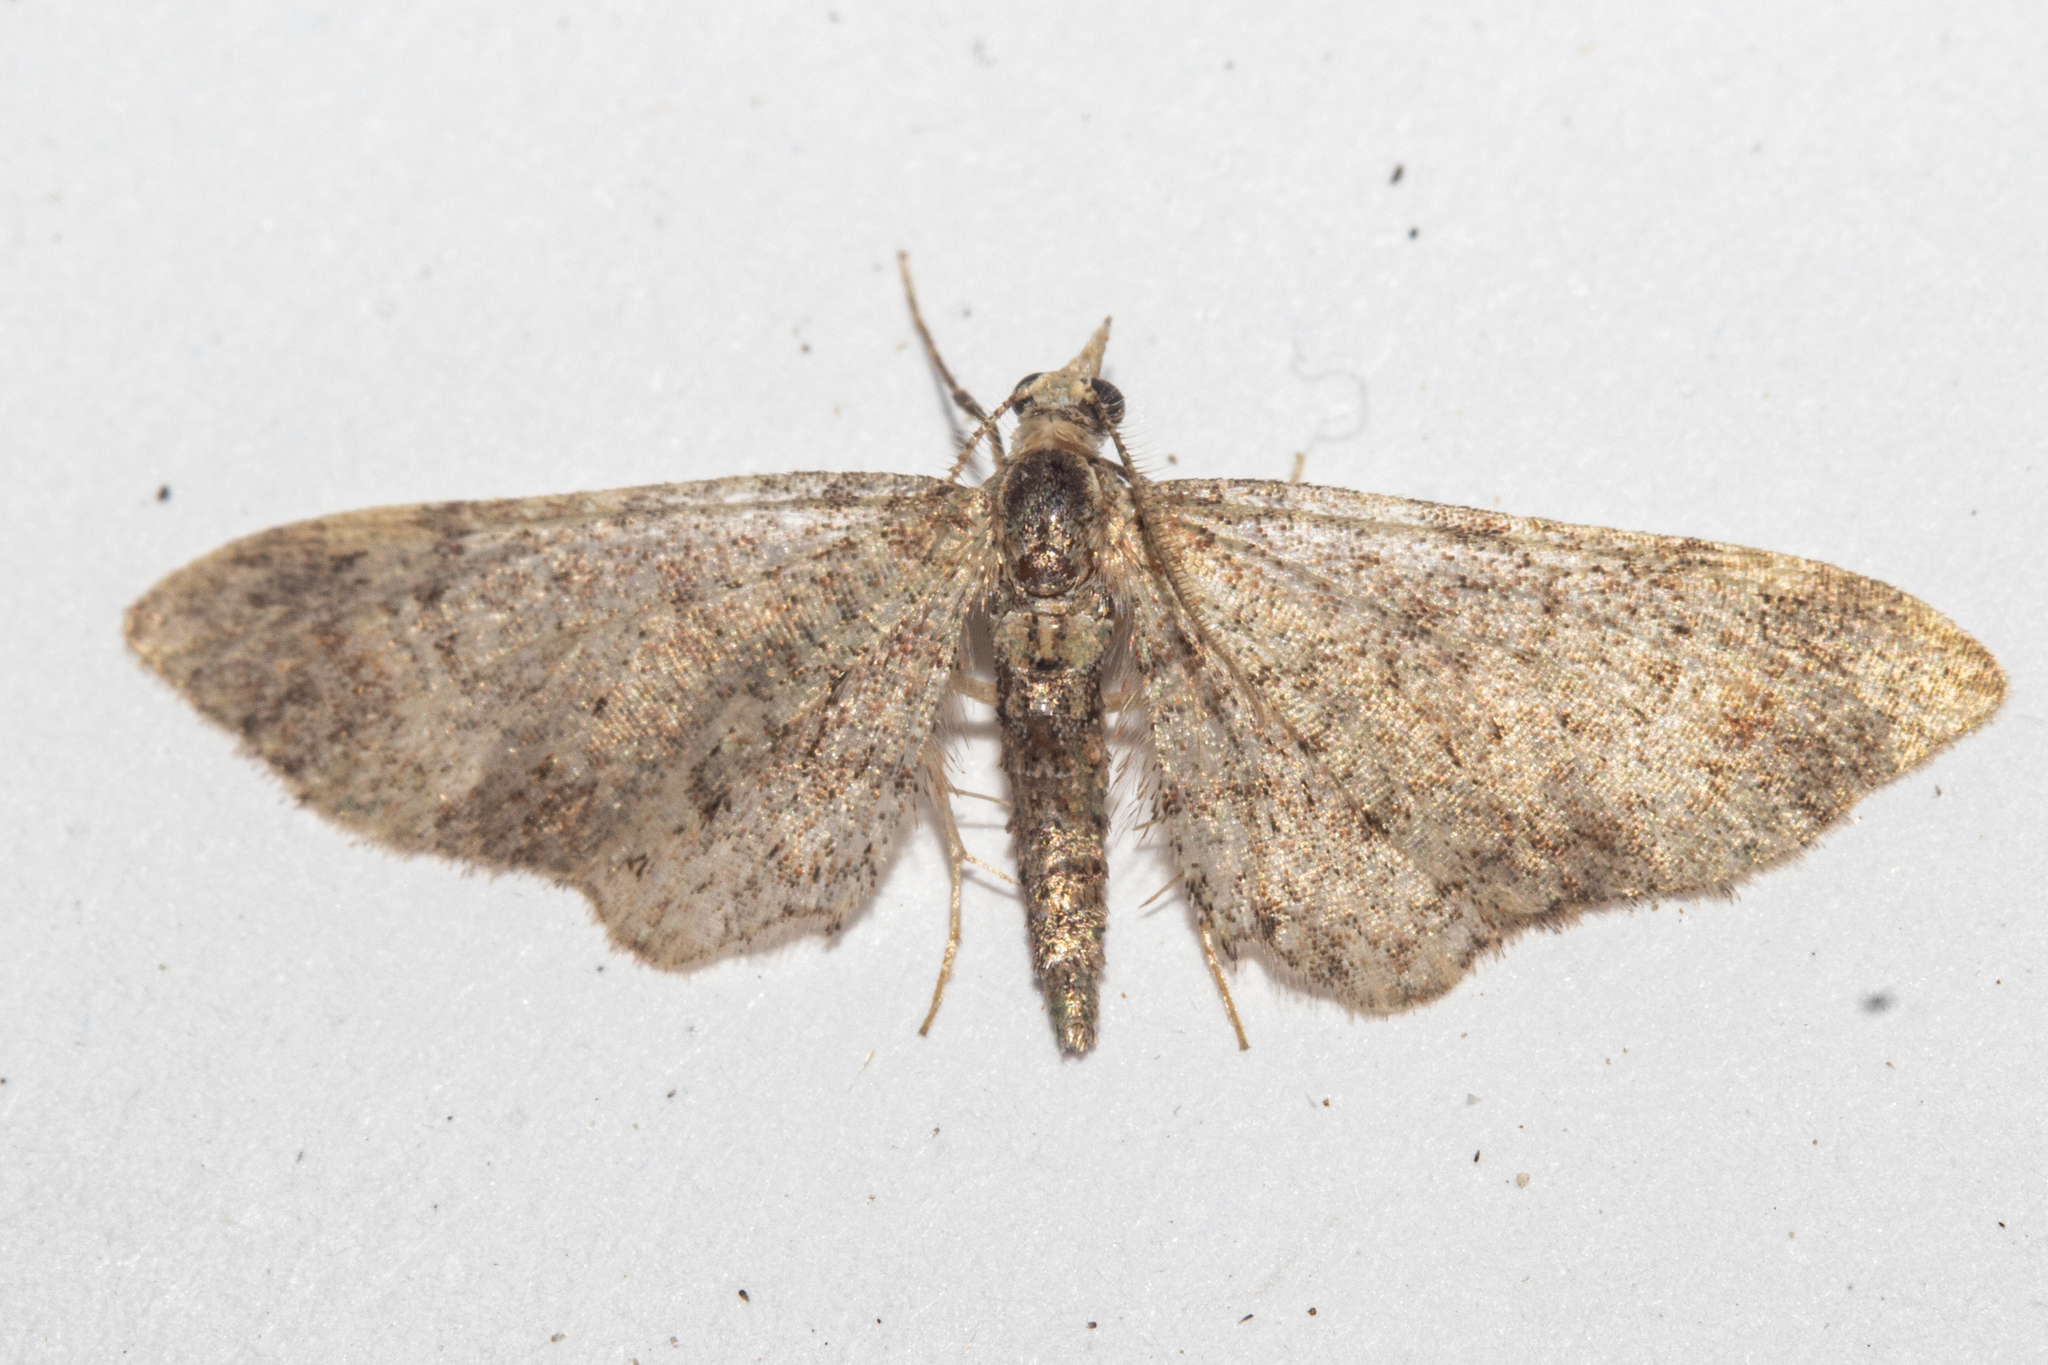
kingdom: Animalia
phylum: Arthropoda
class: Insecta
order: Lepidoptera
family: Geometridae
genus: Pasiphila
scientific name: Pasiphila plinthina
